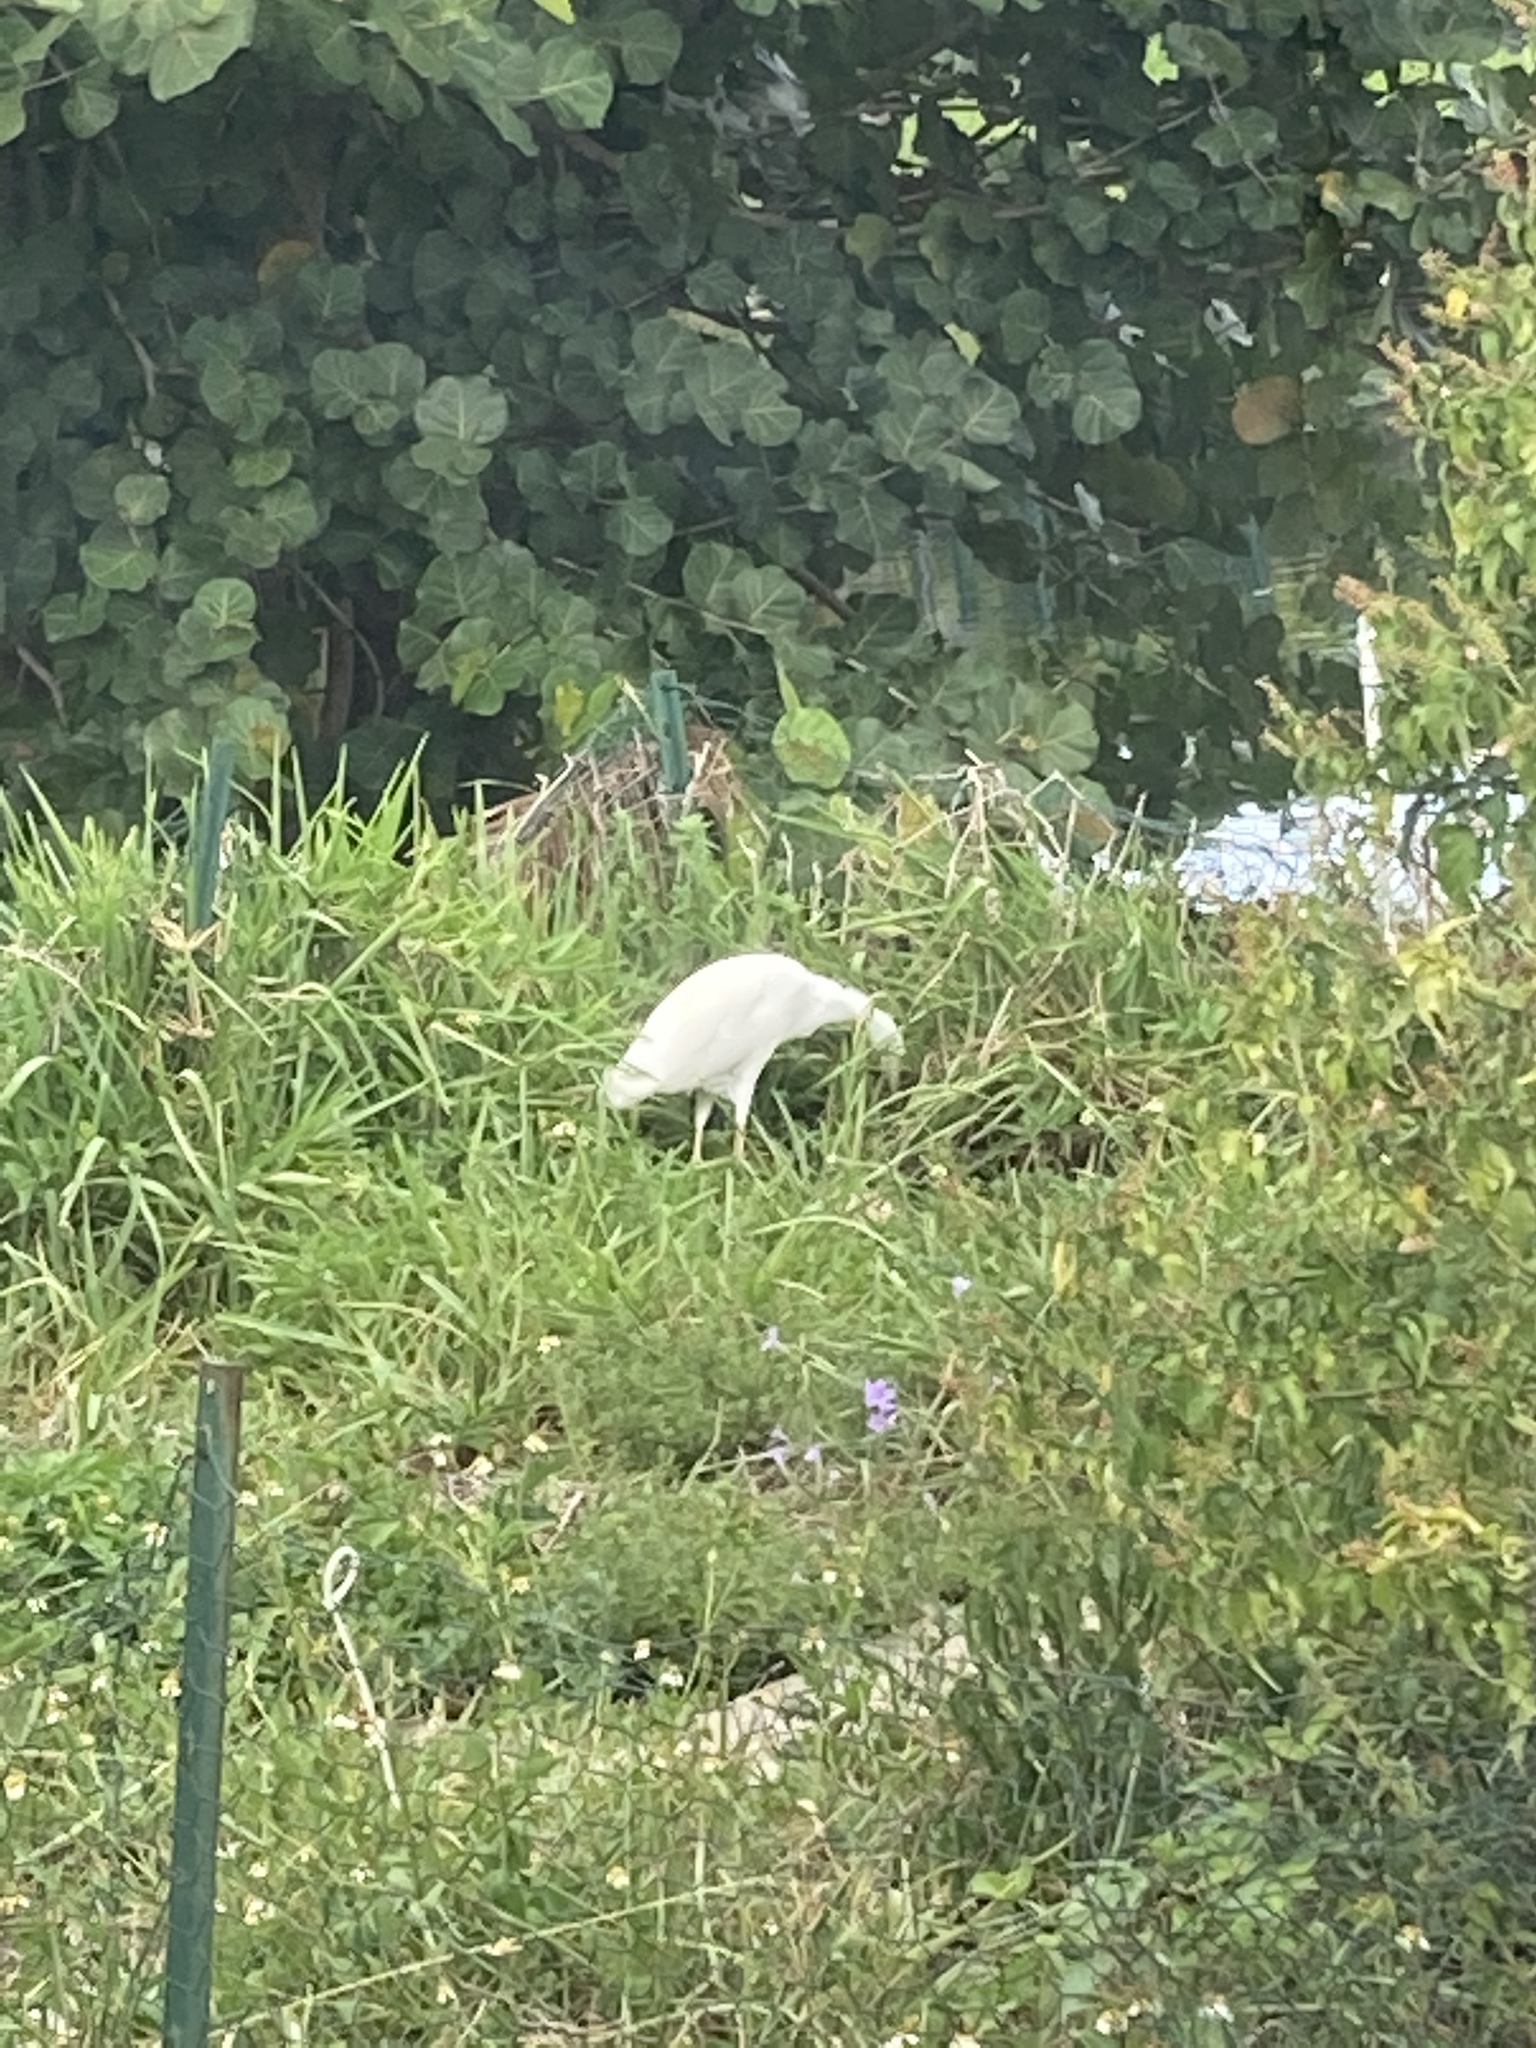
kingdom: Animalia
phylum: Chordata
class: Aves
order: Pelecaniformes
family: Ardeidae
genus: Bubulcus
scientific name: Bubulcus ibis
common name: Cattle egret
